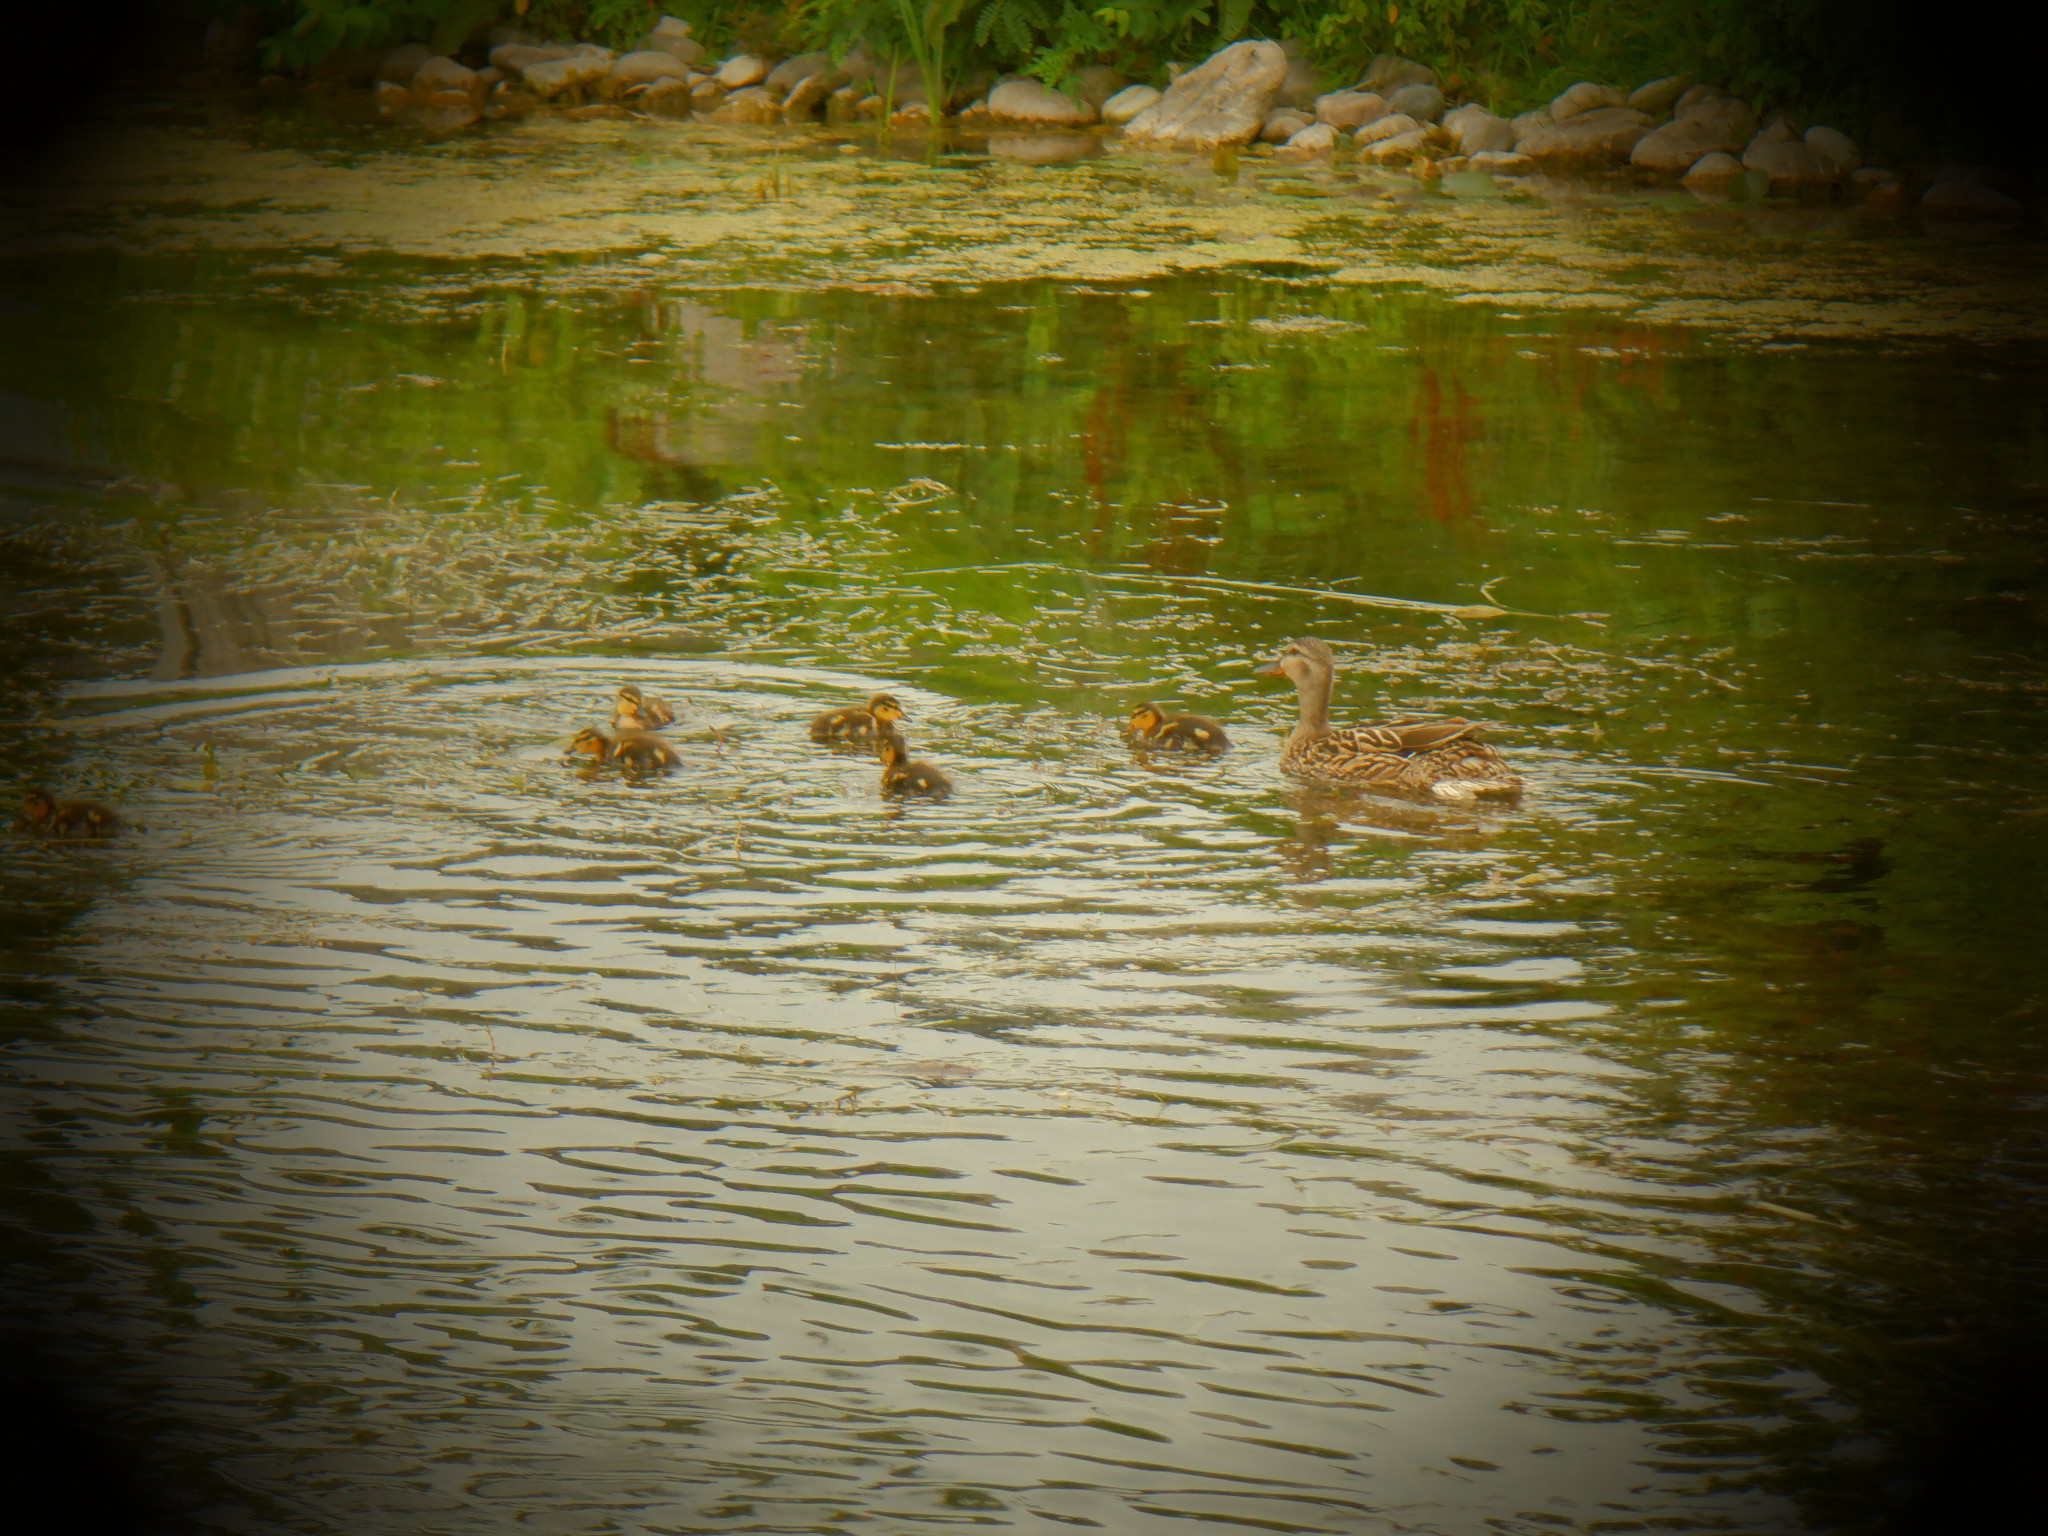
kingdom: Animalia
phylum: Chordata
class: Aves
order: Anseriformes
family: Anatidae
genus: Anas
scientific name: Anas platyrhynchos
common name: Mallard
